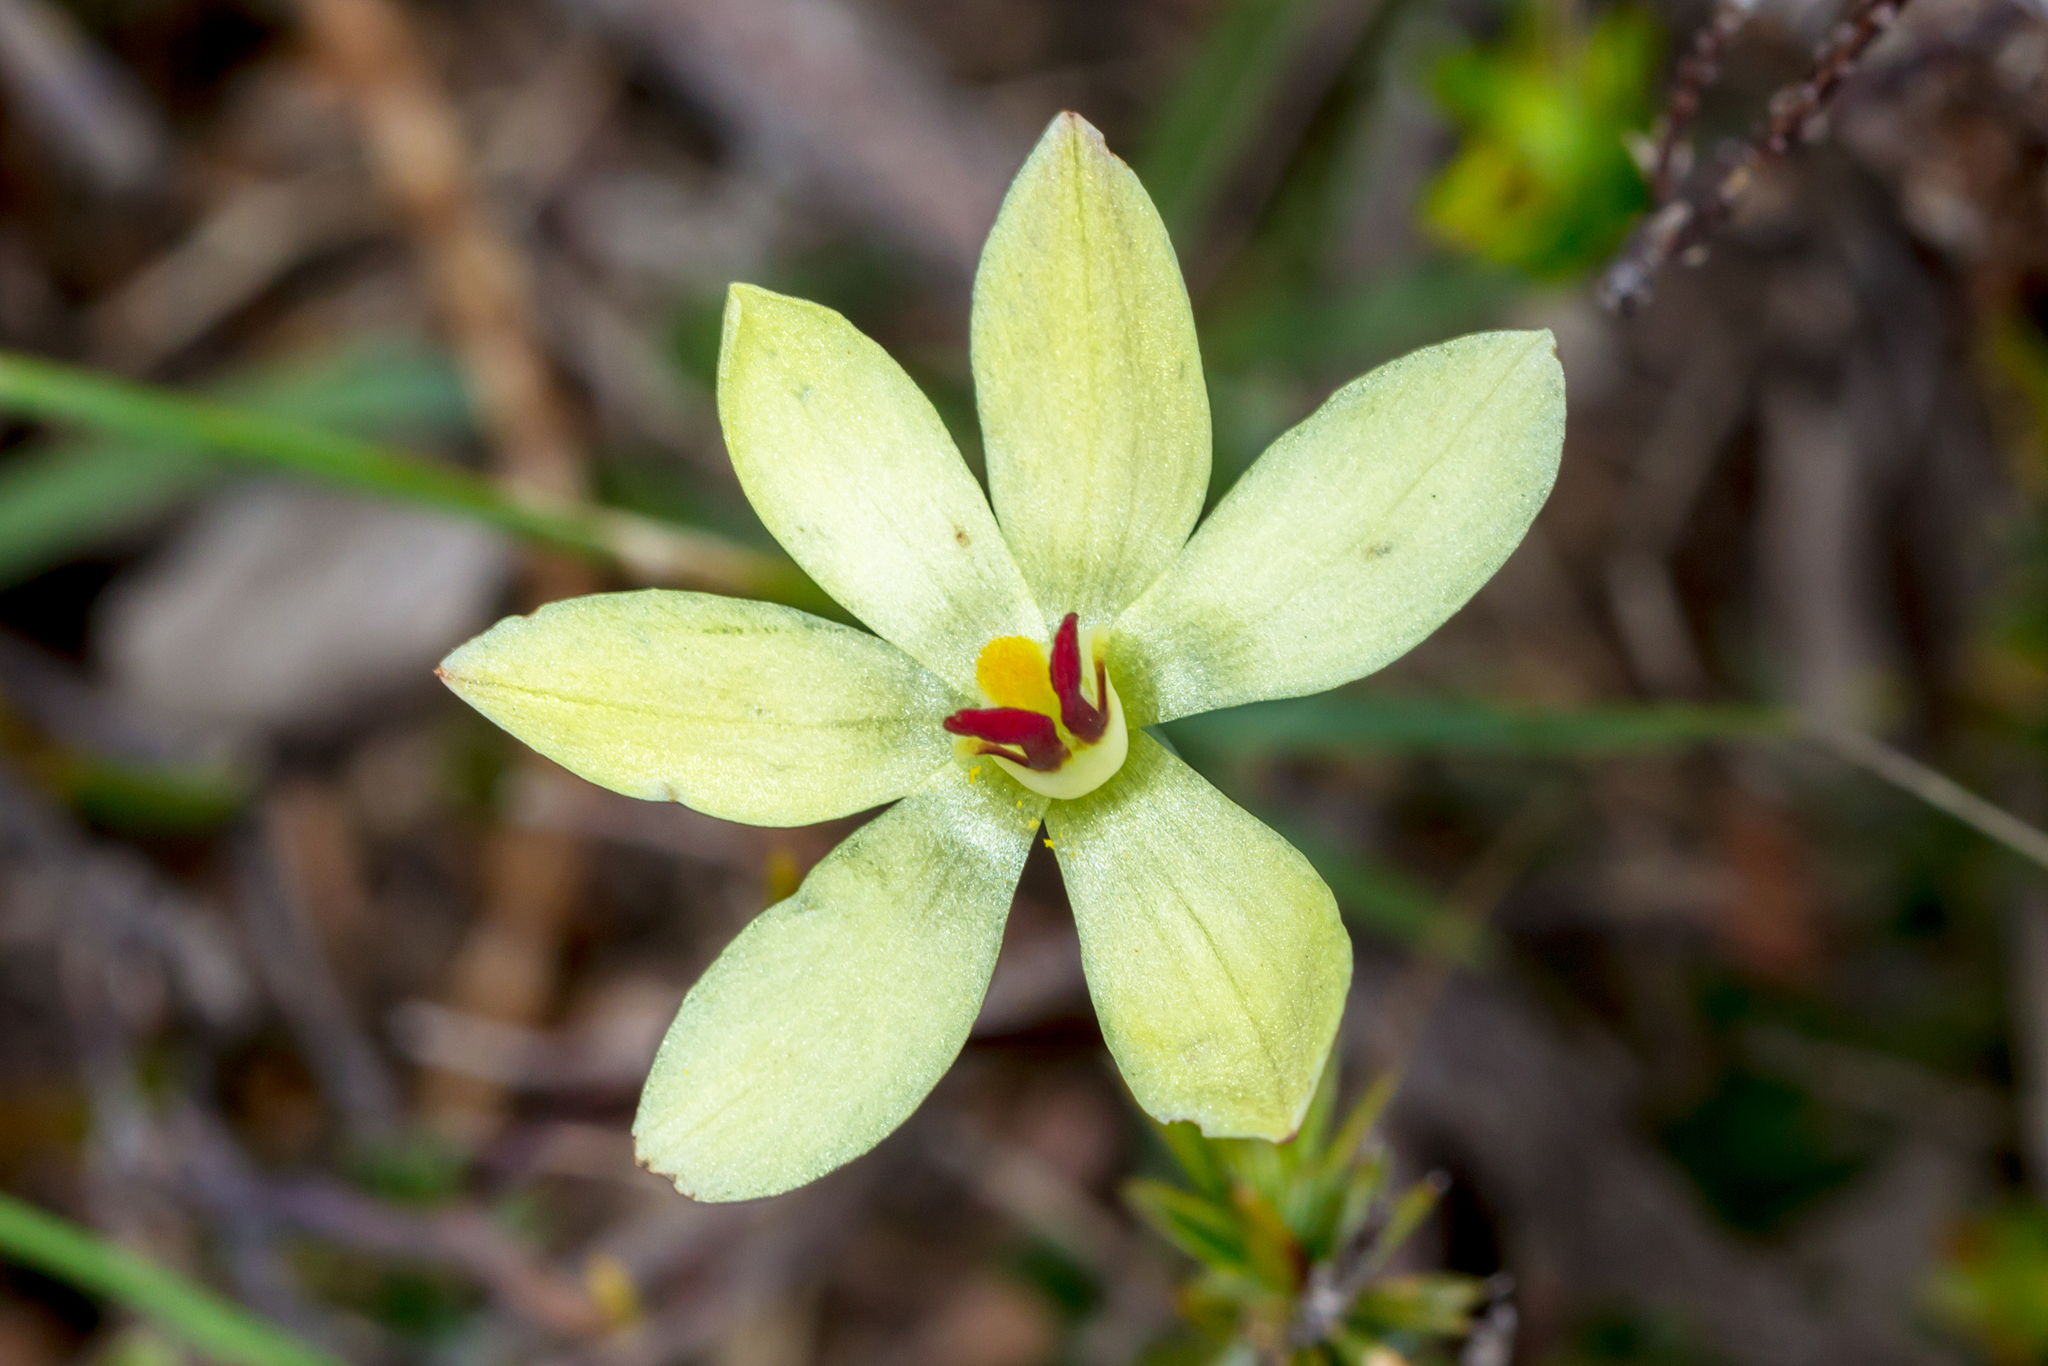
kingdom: Plantae
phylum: Tracheophyta
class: Liliopsida
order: Asparagales
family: Orchidaceae
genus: Thelymitra
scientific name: Thelymitra antennifera
